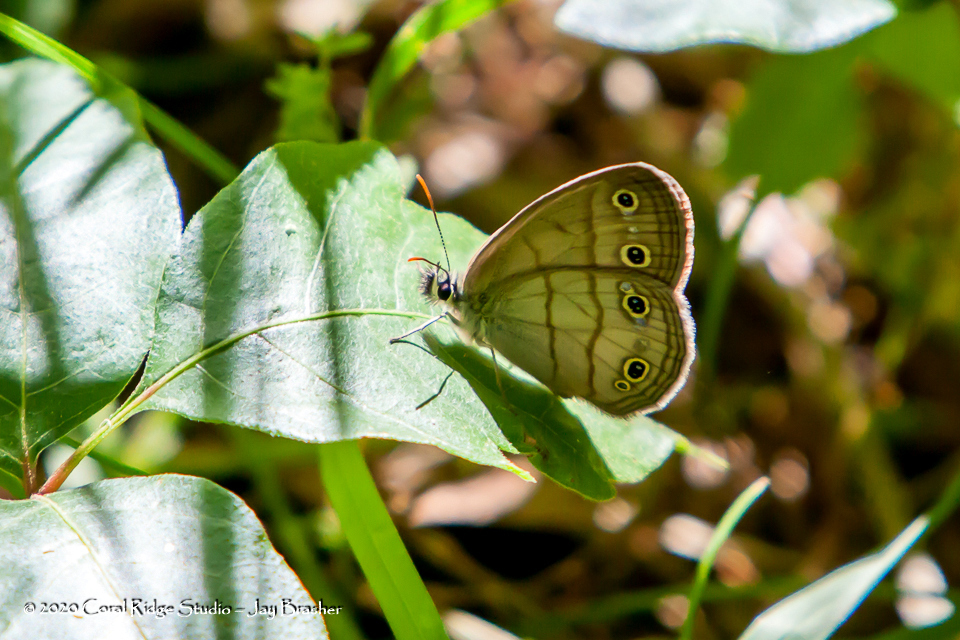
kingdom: Animalia
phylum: Arthropoda
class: Insecta
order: Lepidoptera
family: Nymphalidae
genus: Euptychia
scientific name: Euptychia cymela
